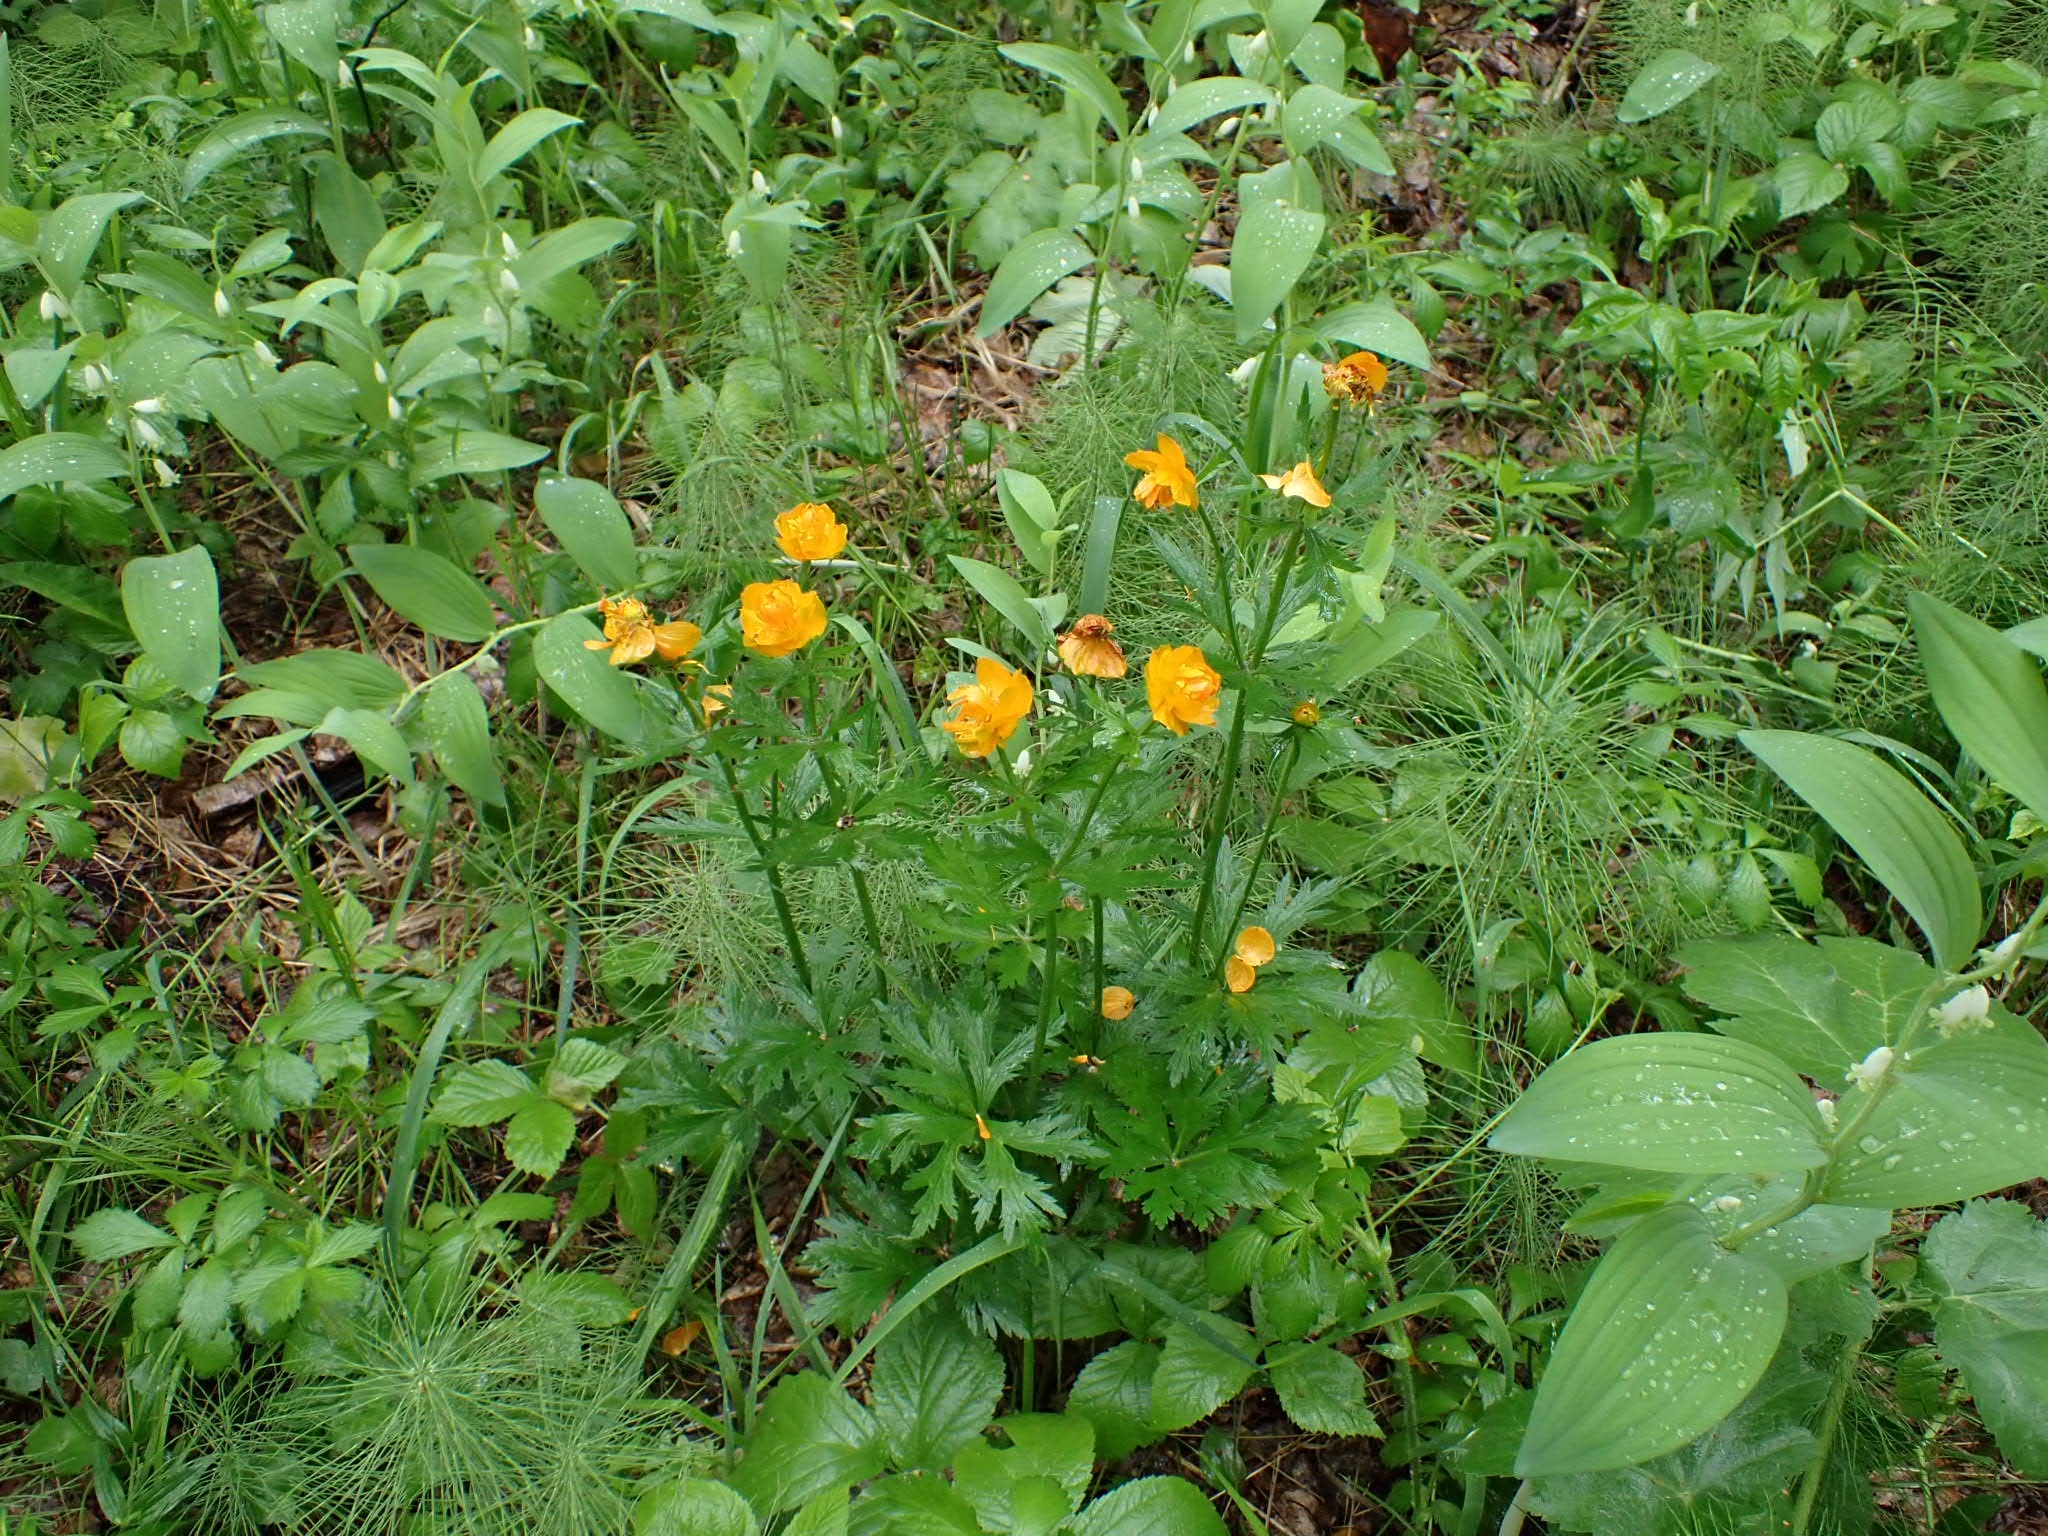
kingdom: Plantae
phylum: Tracheophyta
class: Magnoliopsida
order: Ranunculales
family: Ranunculaceae
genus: Trollius
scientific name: Trollius asiaticus
